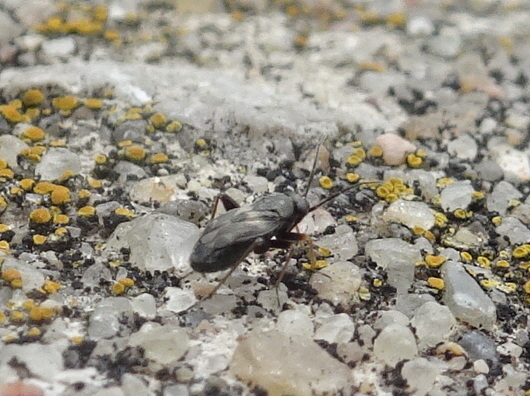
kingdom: Animalia
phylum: Arthropoda
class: Insecta
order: Hemiptera
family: Miridae
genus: Spanagonicus
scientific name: Spanagonicus albofasciatus
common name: Whitemarked fleahopper
